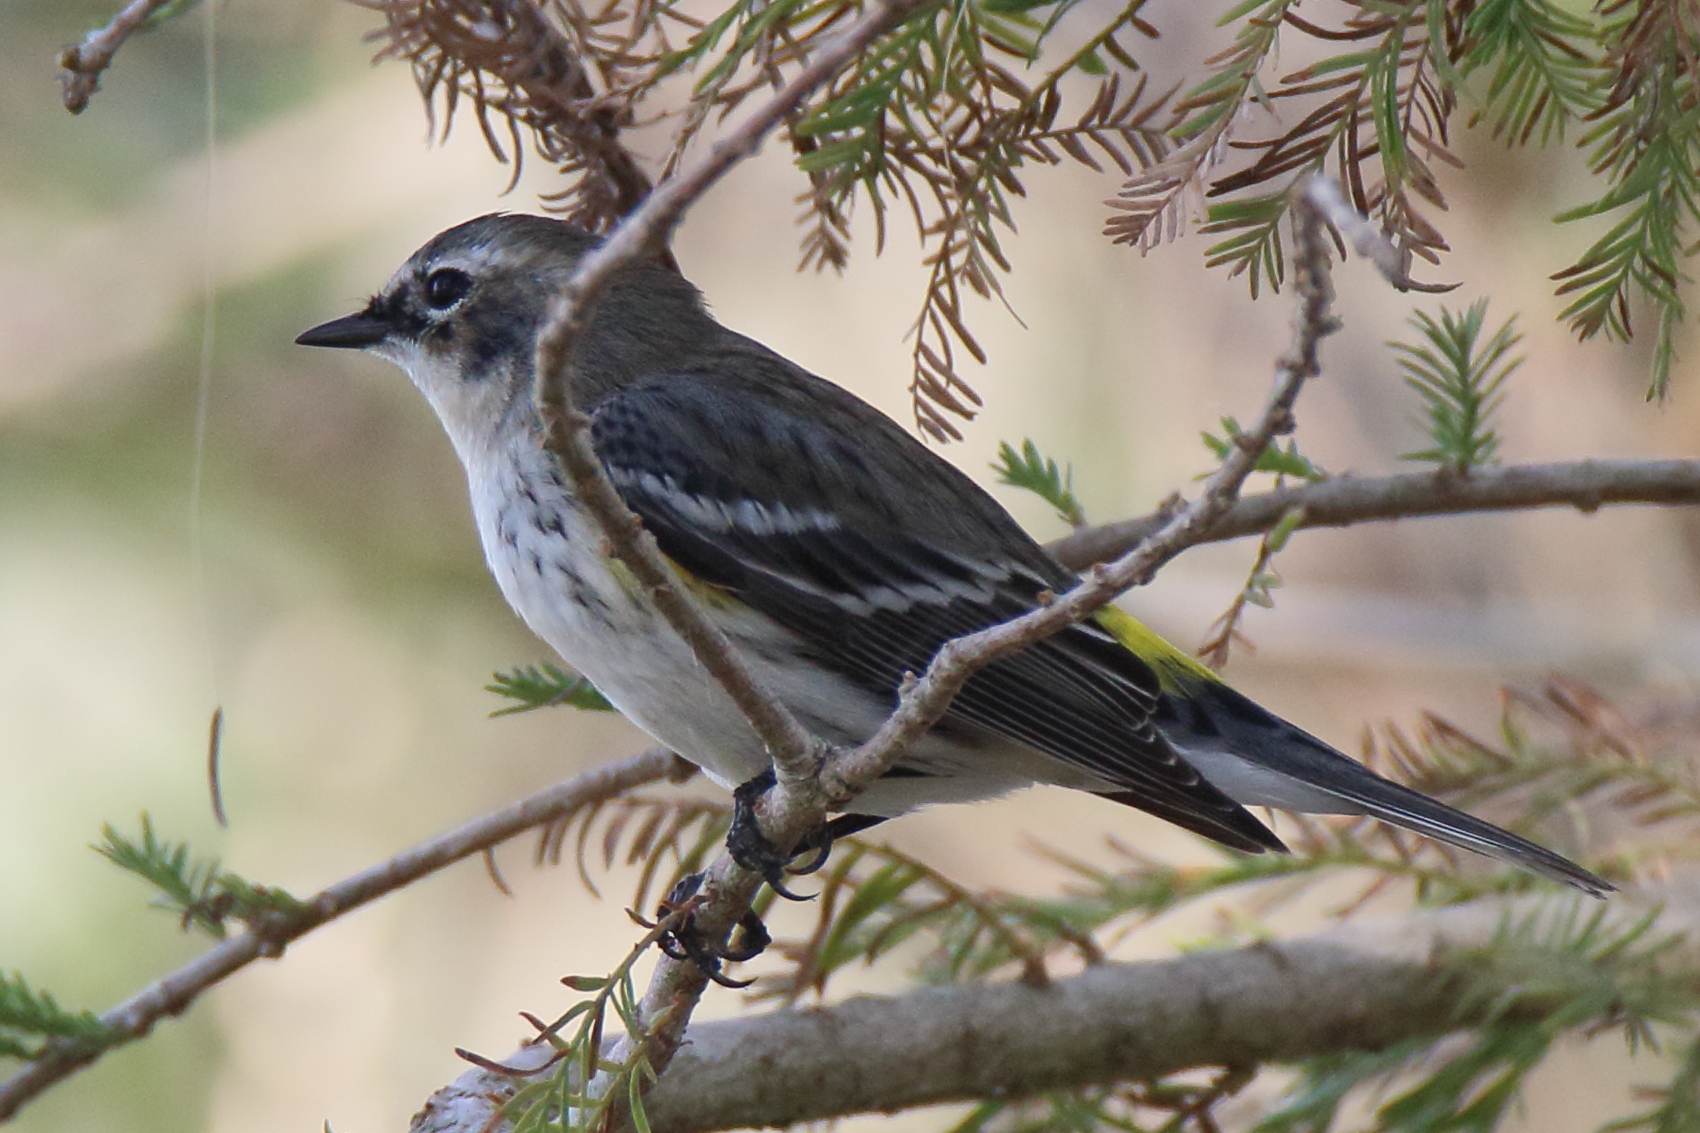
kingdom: Animalia
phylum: Chordata
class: Aves
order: Passeriformes
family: Parulidae
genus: Setophaga
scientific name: Setophaga coronata
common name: Myrtle warbler
